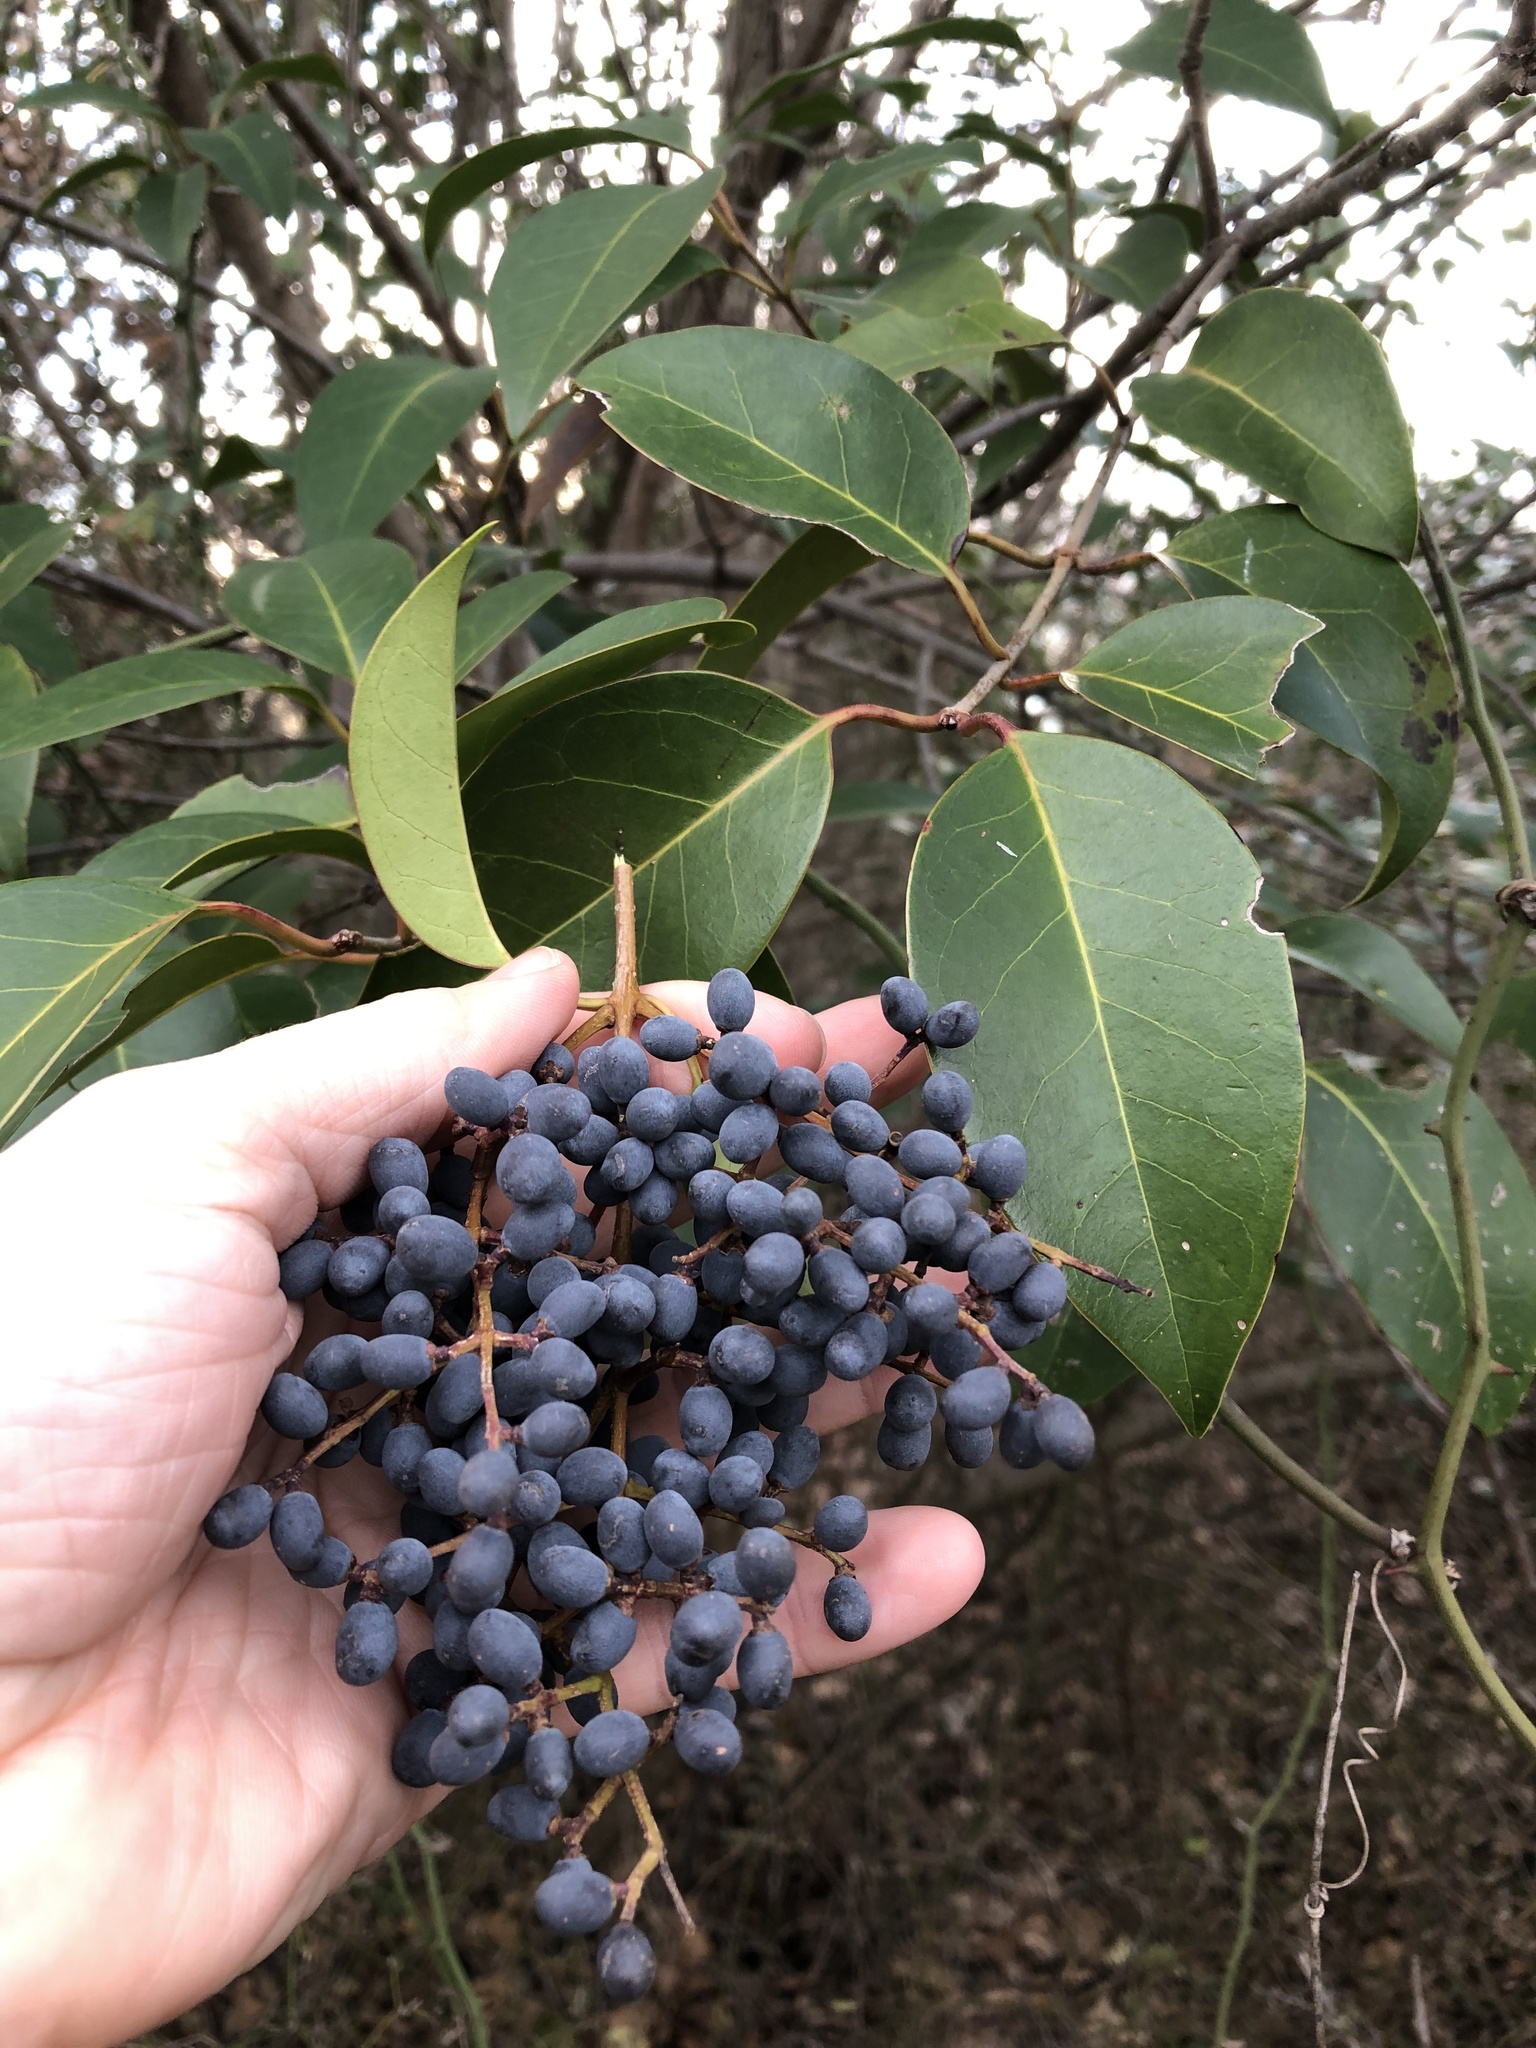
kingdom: Plantae
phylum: Tracheophyta
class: Magnoliopsida
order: Lamiales
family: Oleaceae
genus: Ligustrum
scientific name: Ligustrum lucidum
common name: Glossy privet
